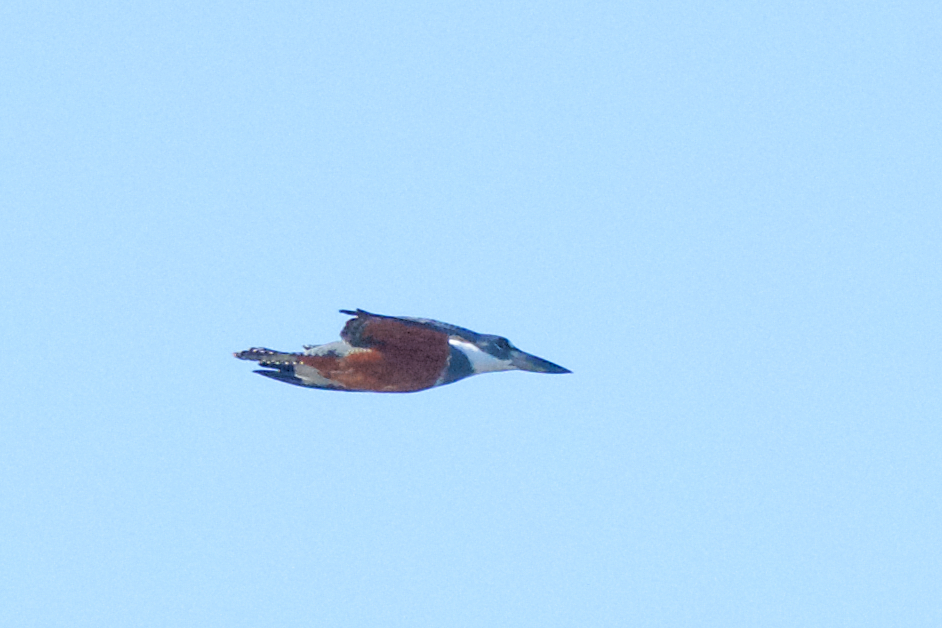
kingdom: Animalia
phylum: Chordata
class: Aves
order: Coraciiformes
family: Alcedinidae
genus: Megaceryle
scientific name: Megaceryle torquata
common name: Ringed kingfisher
